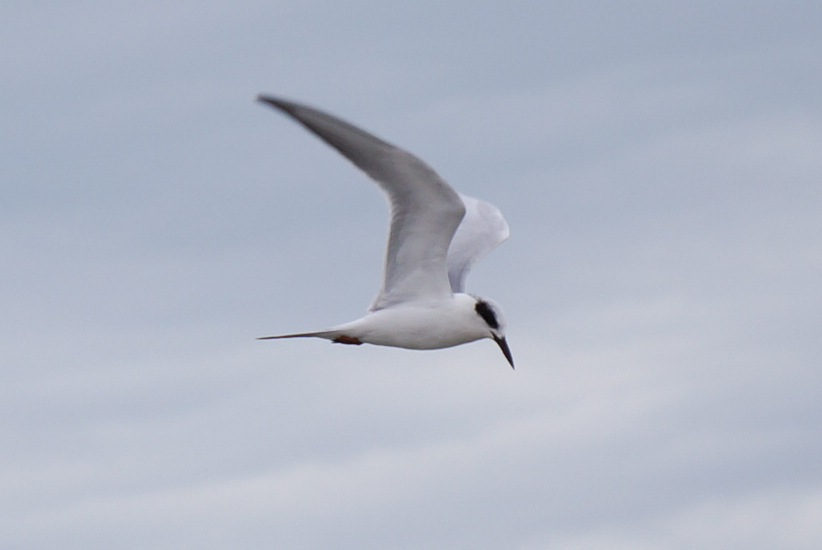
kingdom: Animalia
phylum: Chordata
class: Aves
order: Charadriiformes
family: Laridae
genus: Sterna
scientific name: Sterna forsteri
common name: Forster's tern
